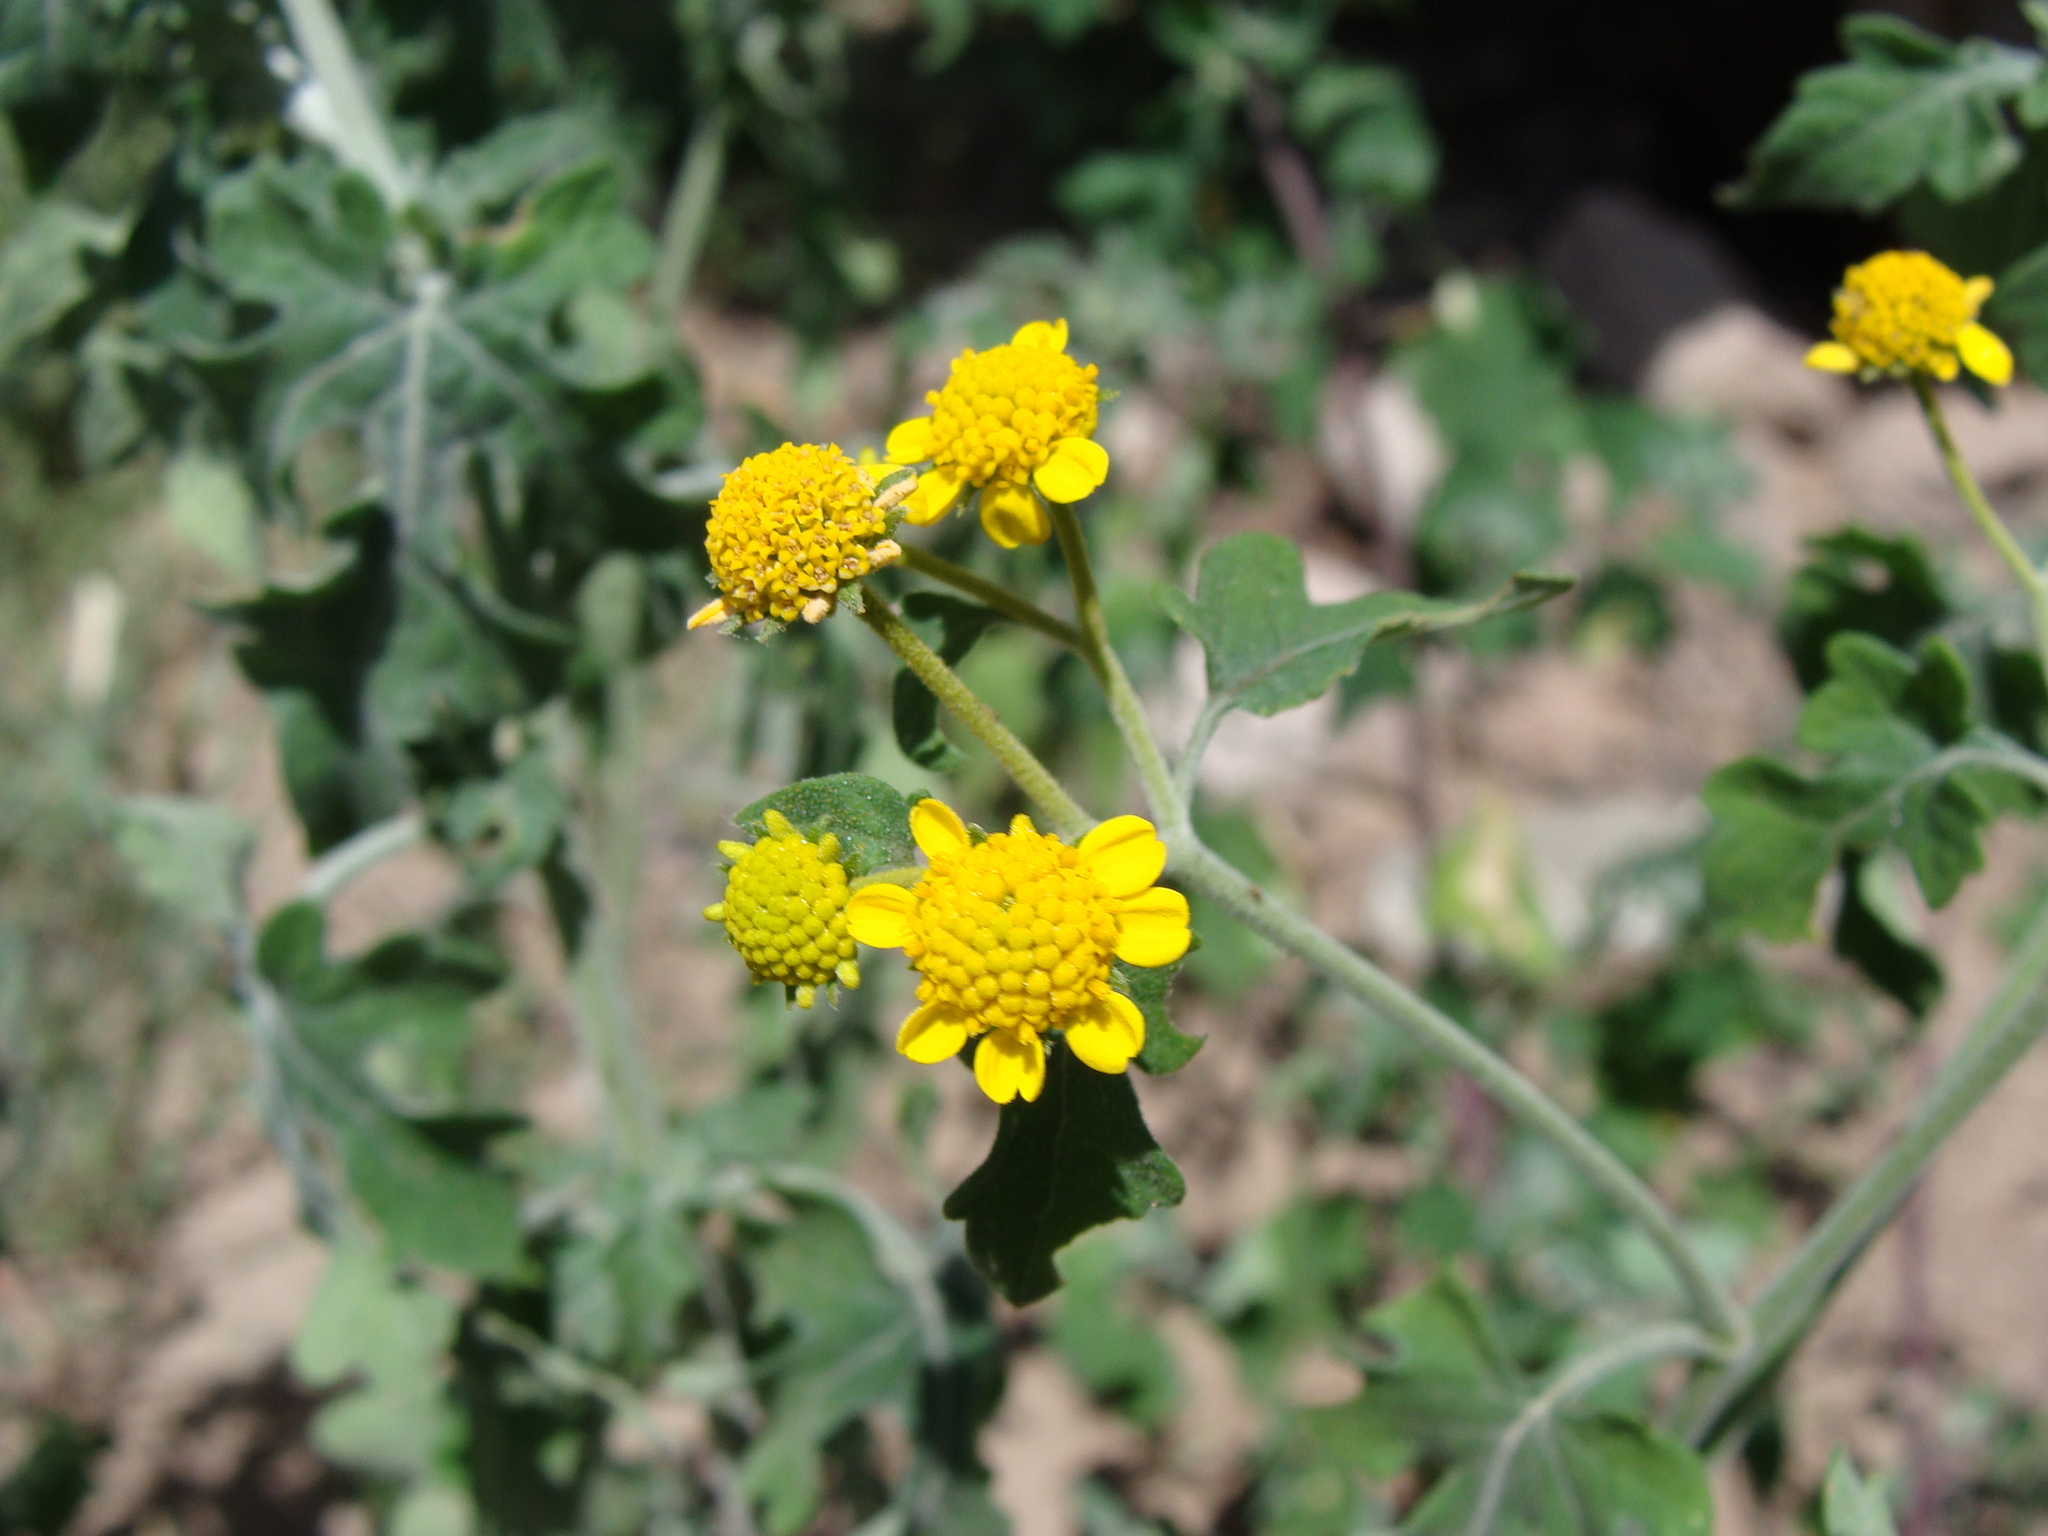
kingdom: Plantae
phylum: Tracheophyta
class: Magnoliopsida
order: Asterales
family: Asteraceae
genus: Zaluzania
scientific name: Zaluzania triloba
